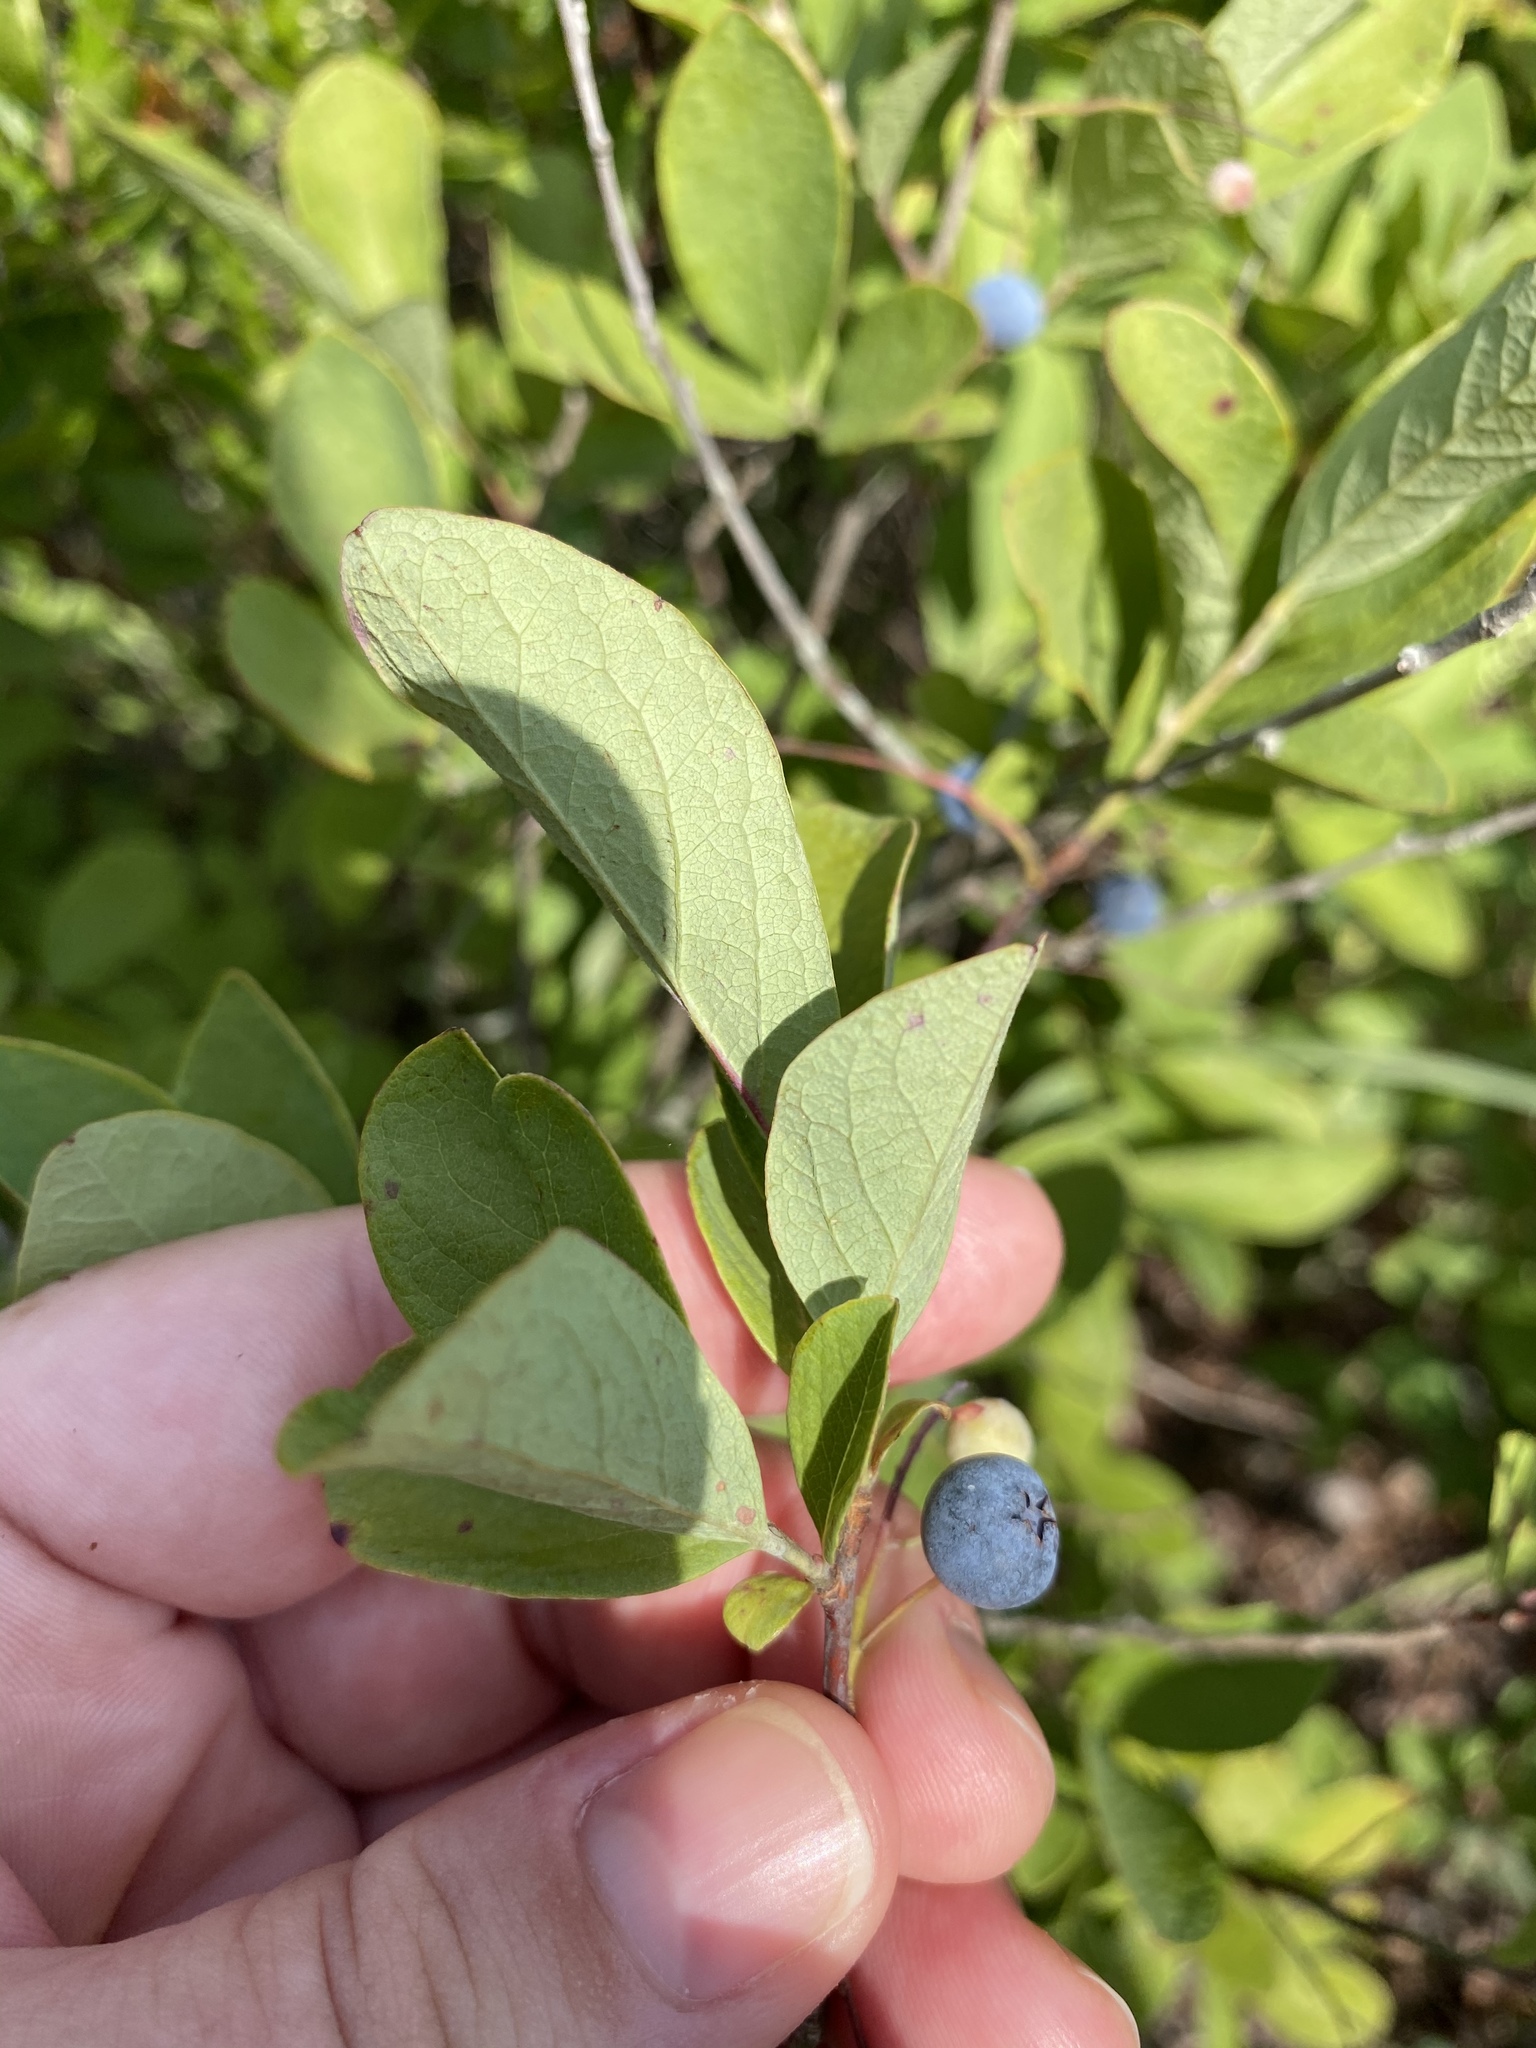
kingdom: Plantae
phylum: Tracheophyta
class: Magnoliopsida
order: Ericales
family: Ericaceae
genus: Gaylussacia
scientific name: Gaylussacia frondosa
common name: Dangleberry
